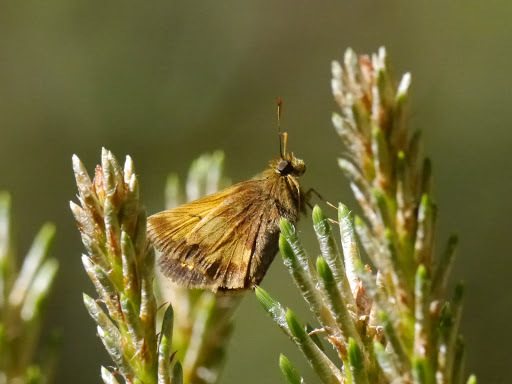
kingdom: Animalia
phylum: Arthropoda
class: Insecta
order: Lepidoptera
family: Hesperiidae
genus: Lon
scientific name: Lon hobomok
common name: Hobomok skipper
